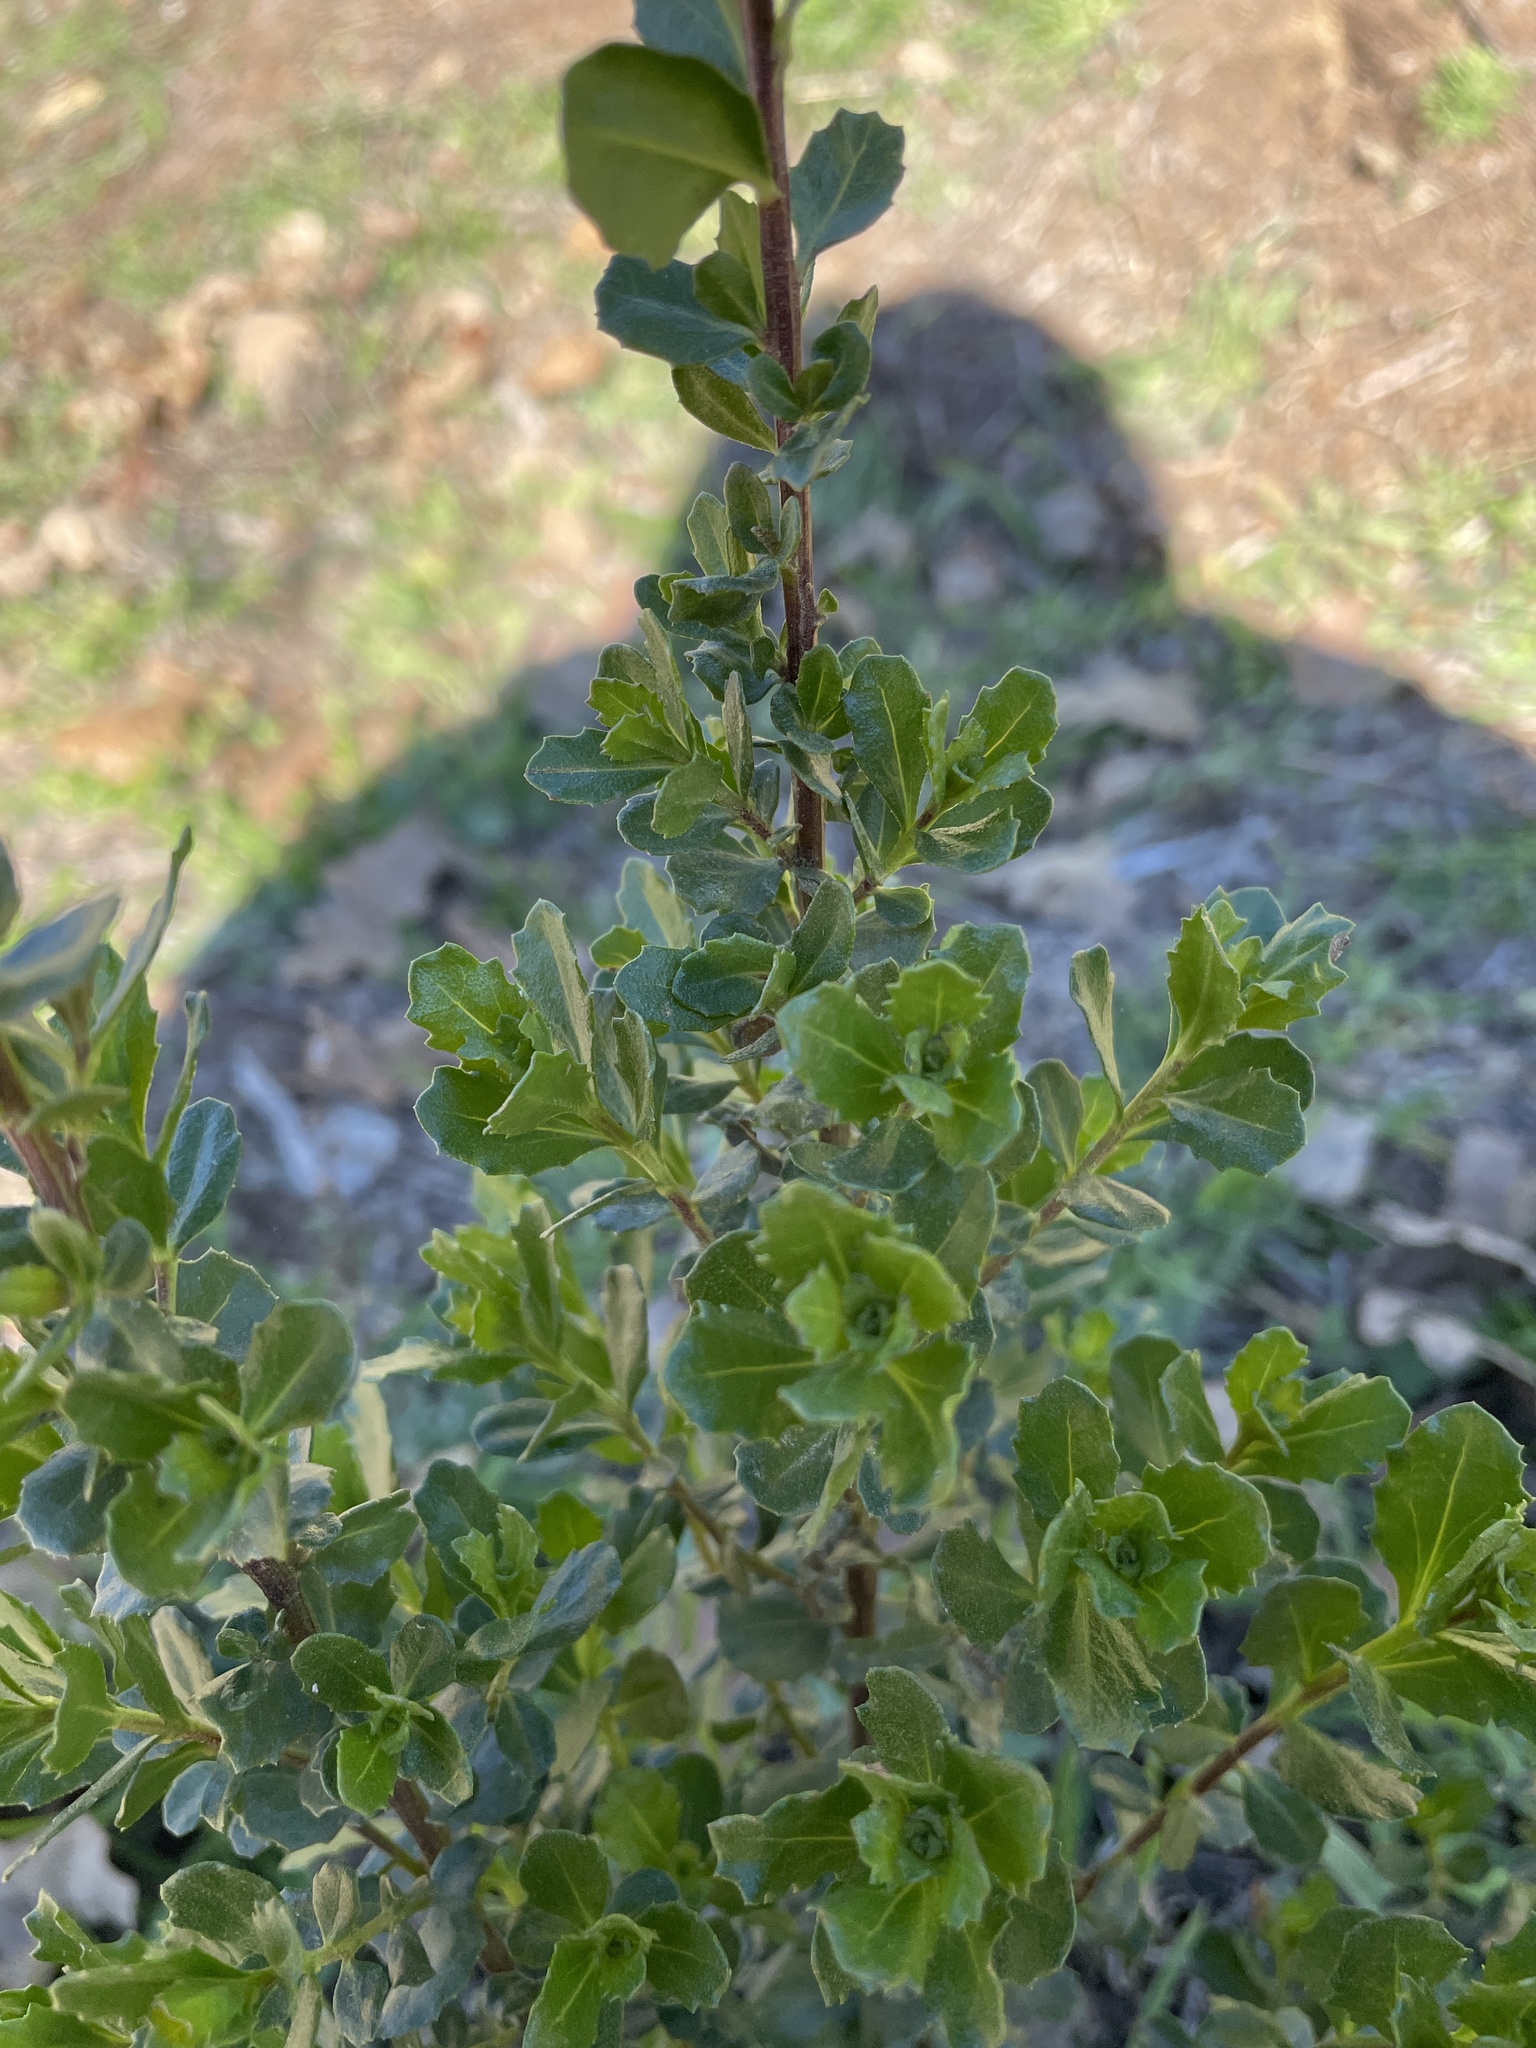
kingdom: Plantae
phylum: Tracheophyta
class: Magnoliopsida
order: Asterales
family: Asteraceae
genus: Baccharis
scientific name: Baccharis pilularis
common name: Coyotebrush
